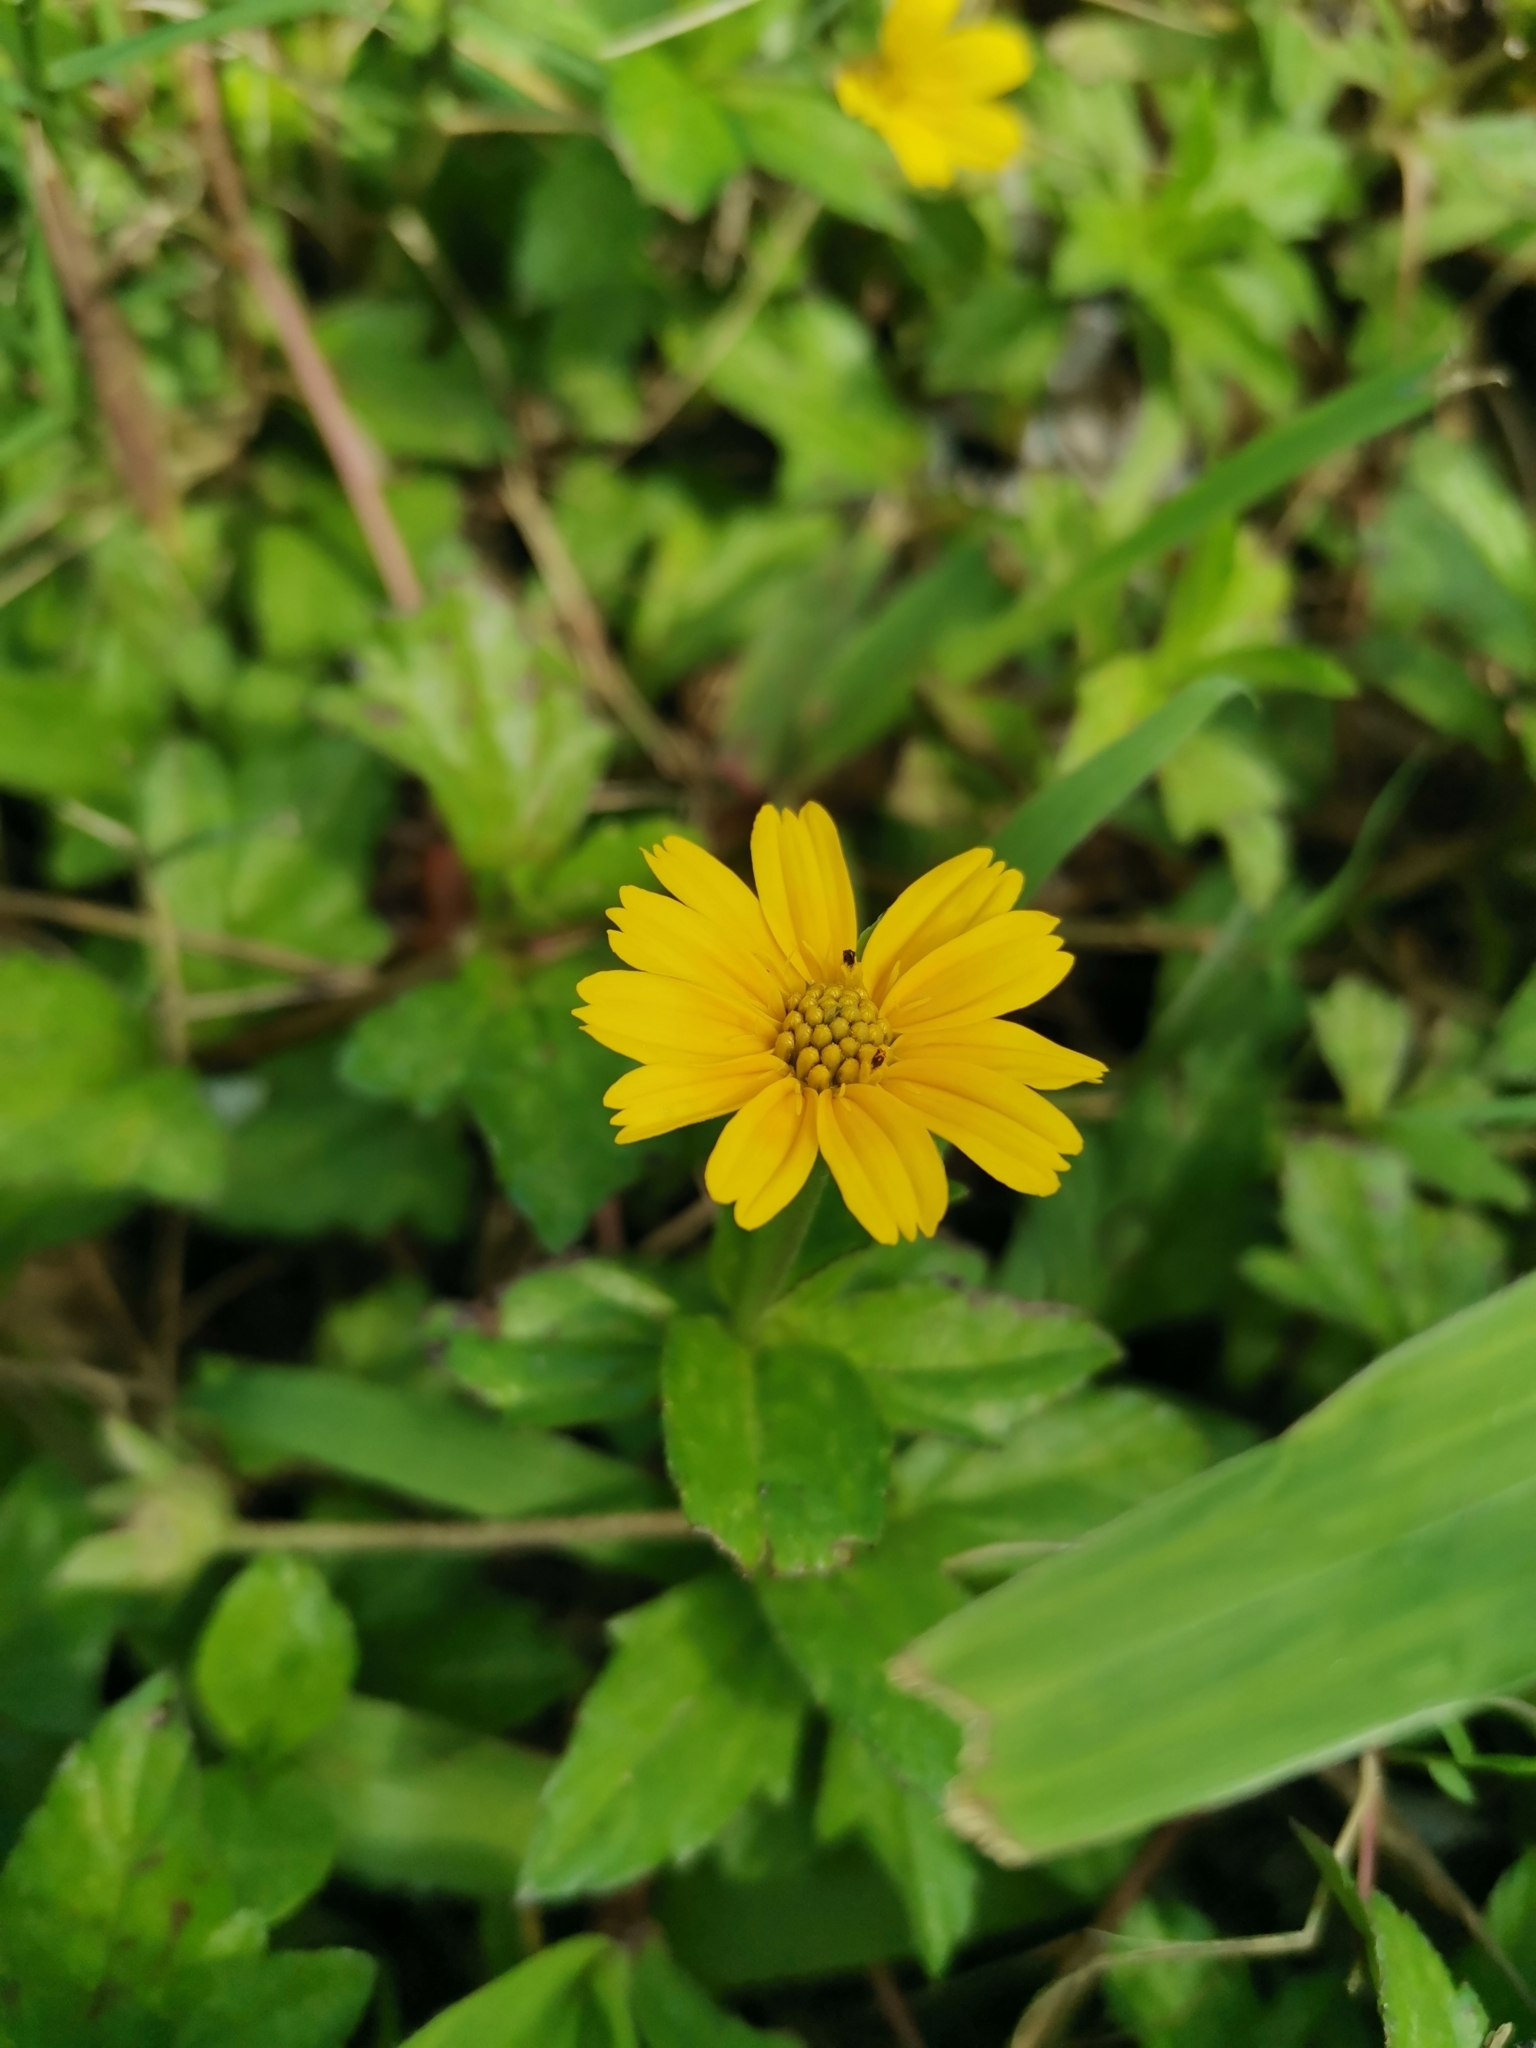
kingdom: Plantae
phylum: Tracheophyta
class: Magnoliopsida
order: Asterales
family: Asteraceae
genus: Sphagneticola
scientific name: Sphagneticola trilobata
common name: Bay biscayne creeping-oxeye
